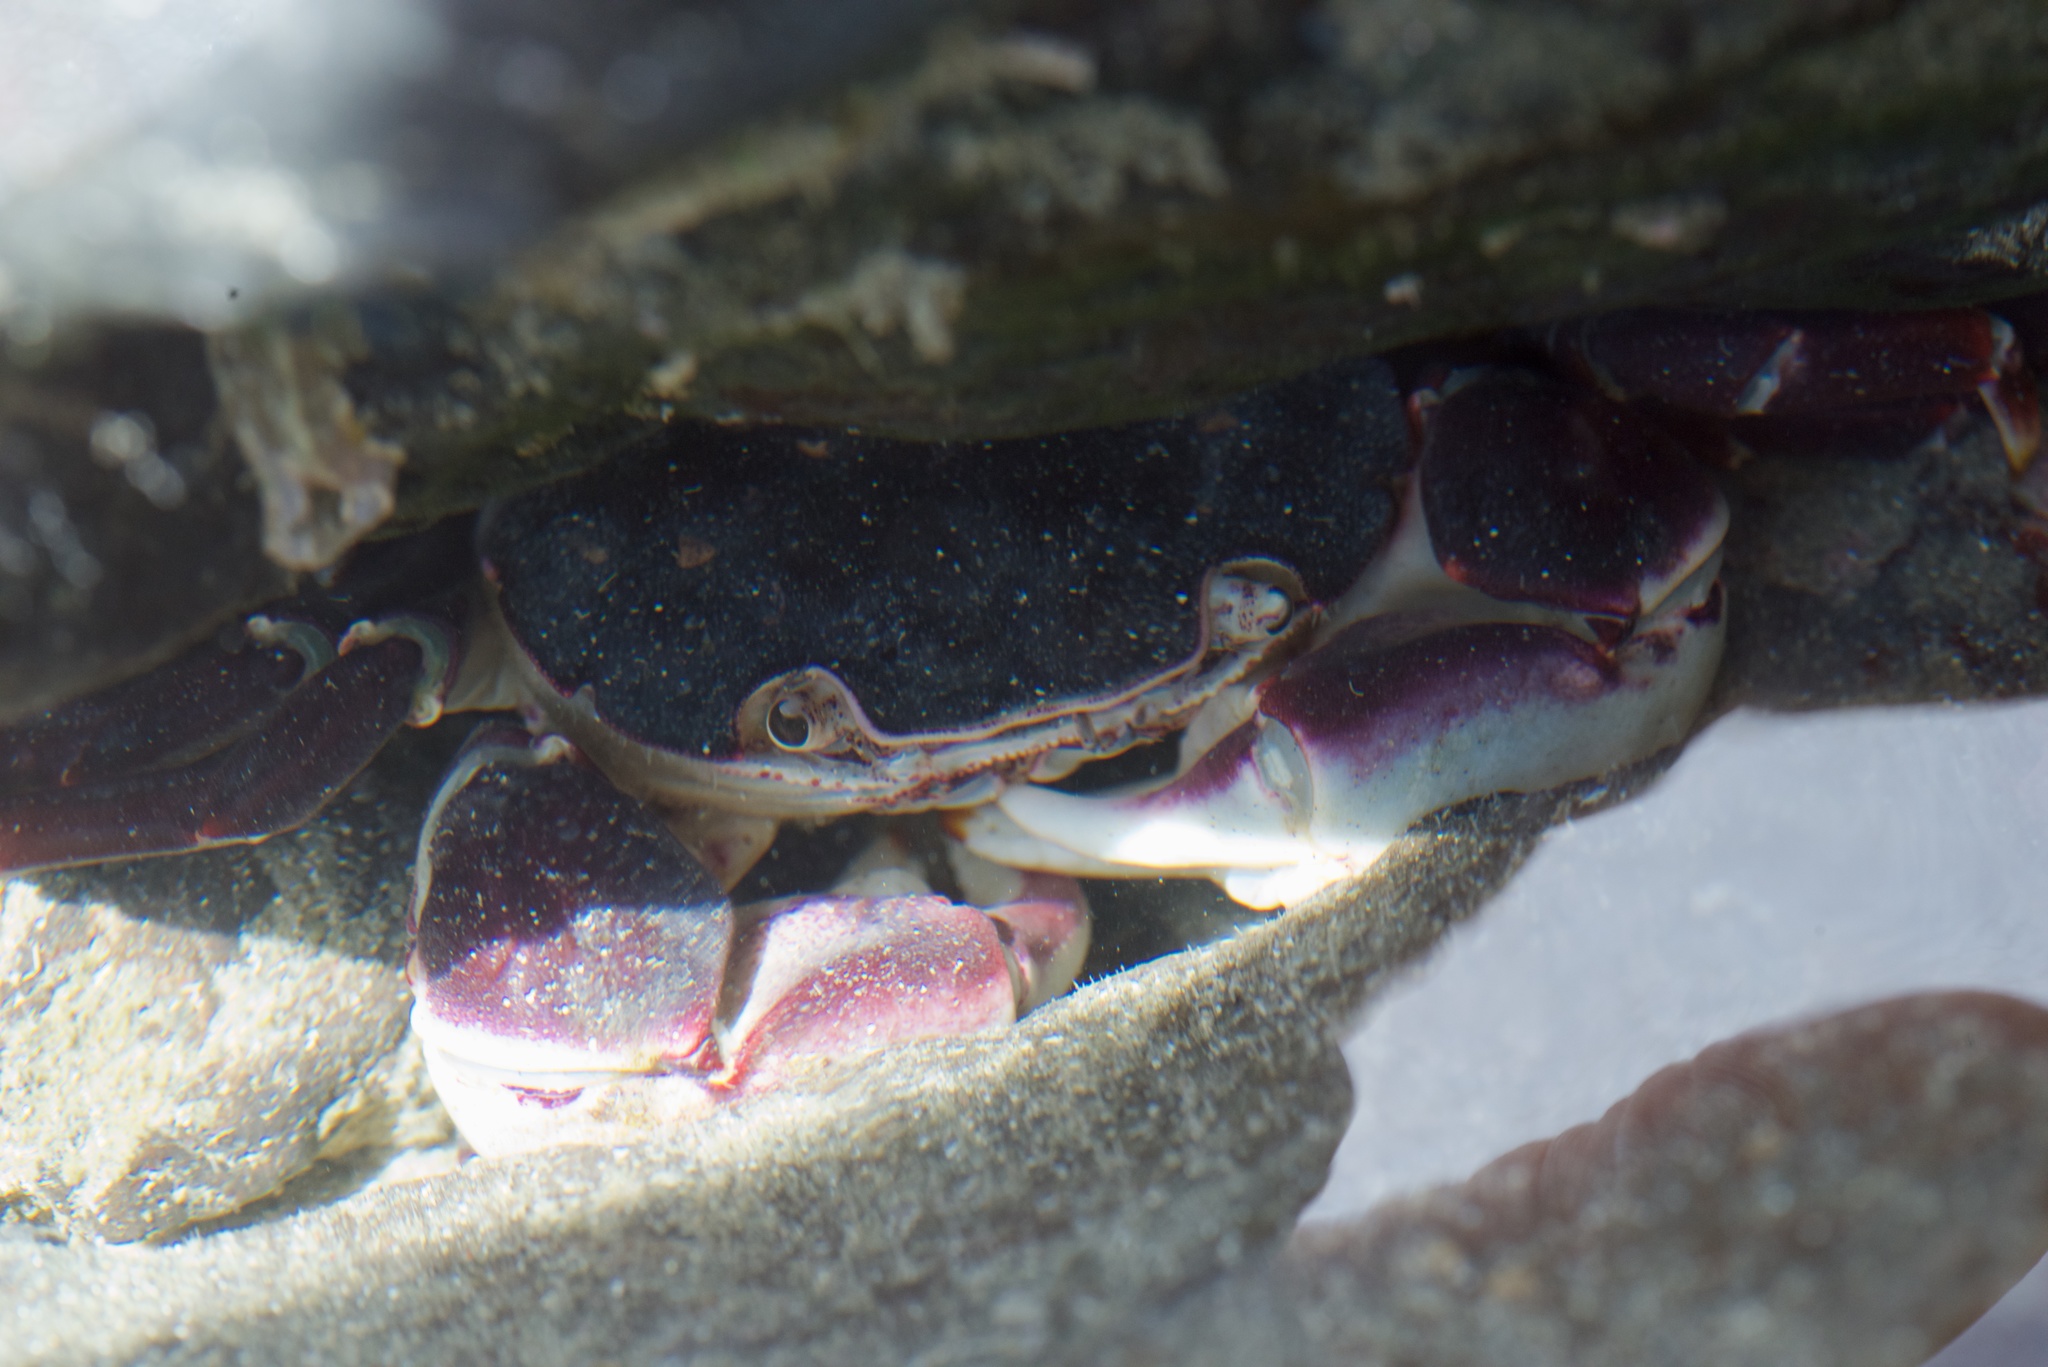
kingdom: Animalia
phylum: Arthropoda
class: Malacostraca
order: Decapoda
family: Varunidae
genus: Hemigrapsus
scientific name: Hemigrapsus sexdentatus
